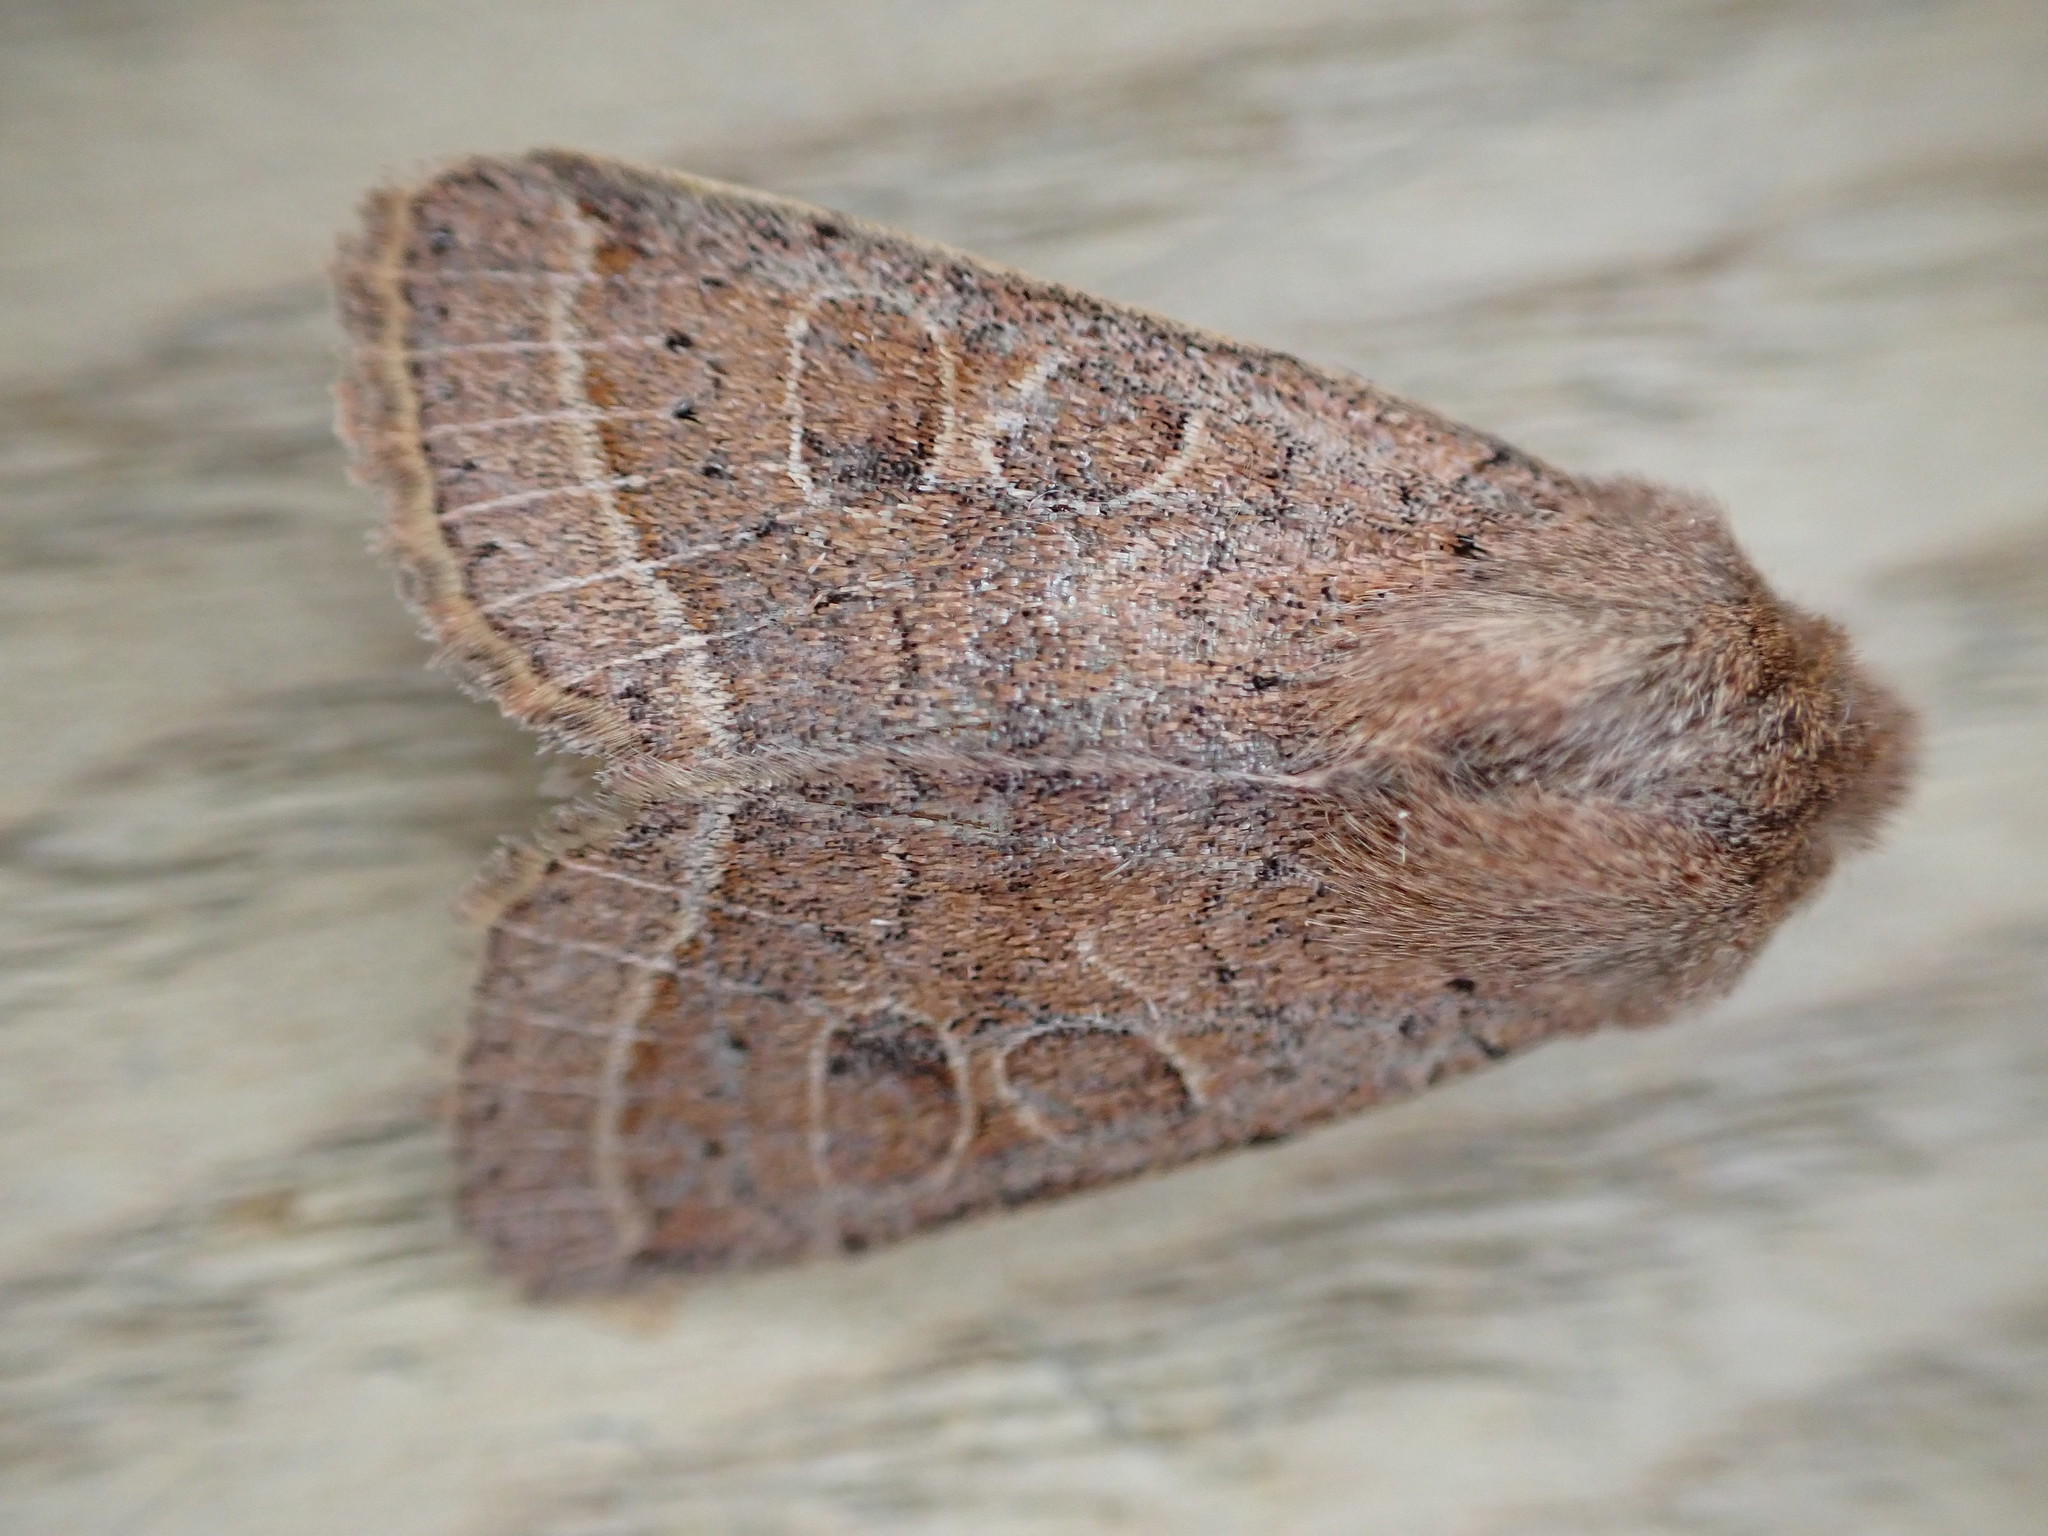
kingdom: Animalia
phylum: Arthropoda
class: Insecta
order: Lepidoptera
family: Noctuidae
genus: Orthosia
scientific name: Orthosia cerasi
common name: Common quaker
